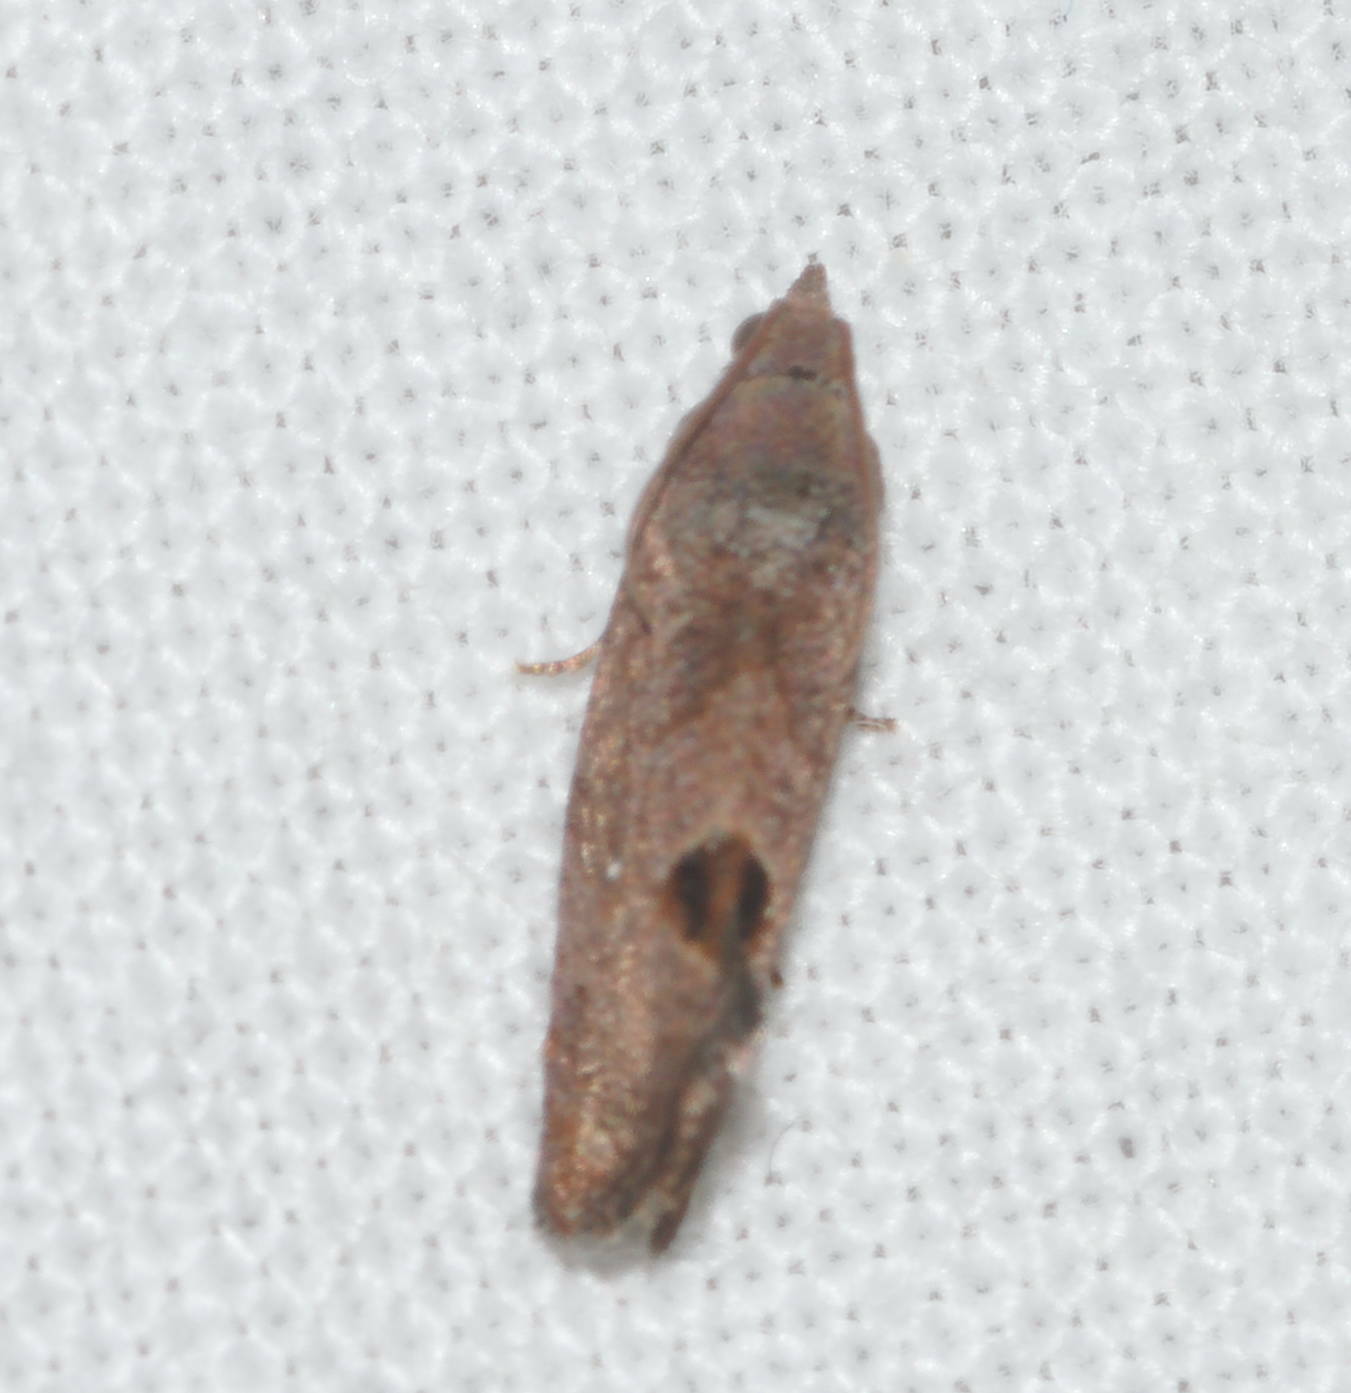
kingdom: Animalia
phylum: Arthropoda
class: Insecta
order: Lepidoptera
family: Tortricidae
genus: Cryptophlebia
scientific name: Cryptophlebia illepida
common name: Moth
